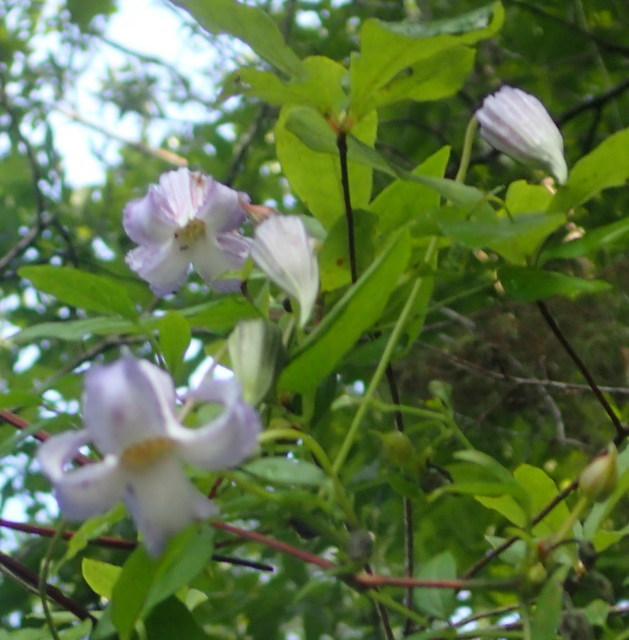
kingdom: Plantae
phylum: Tracheophyta
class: Magnoliopsida
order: Ranunculales
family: Ranunculaceae
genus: Clematis
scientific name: Clematis crispa
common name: Curly clematis
